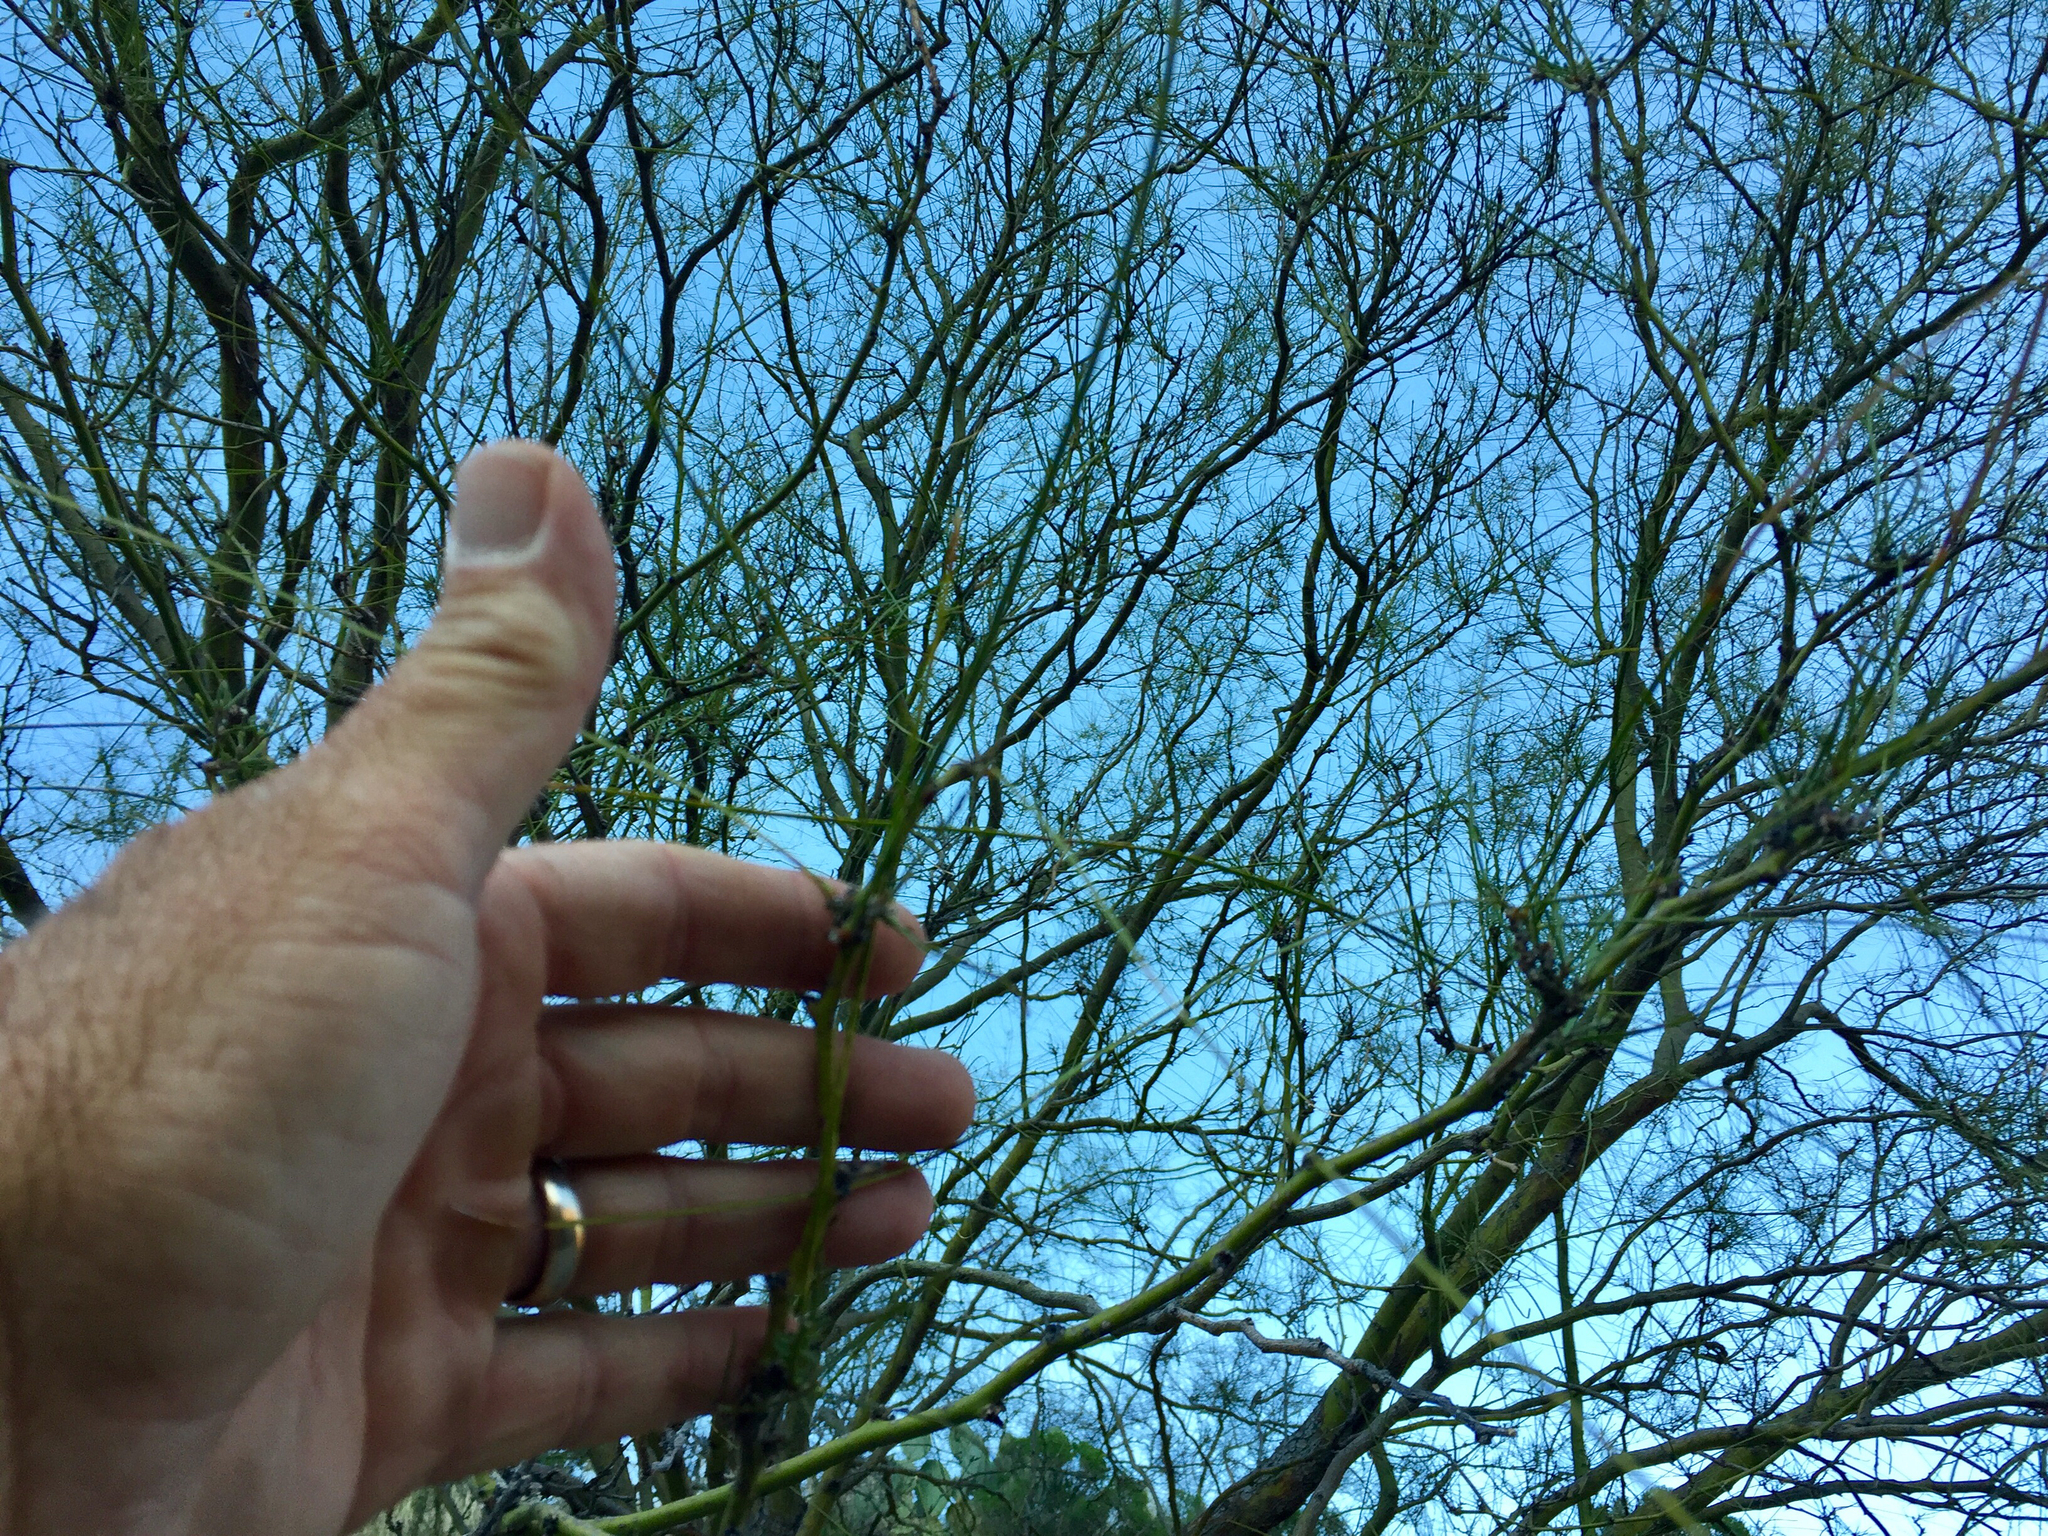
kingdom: Plantae
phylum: Tracheophyta
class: Magnoliopsida
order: Fabales
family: Fabaceae
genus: Parkinsonia
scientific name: Parkinsonia microphylla
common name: Yellow paloverde
